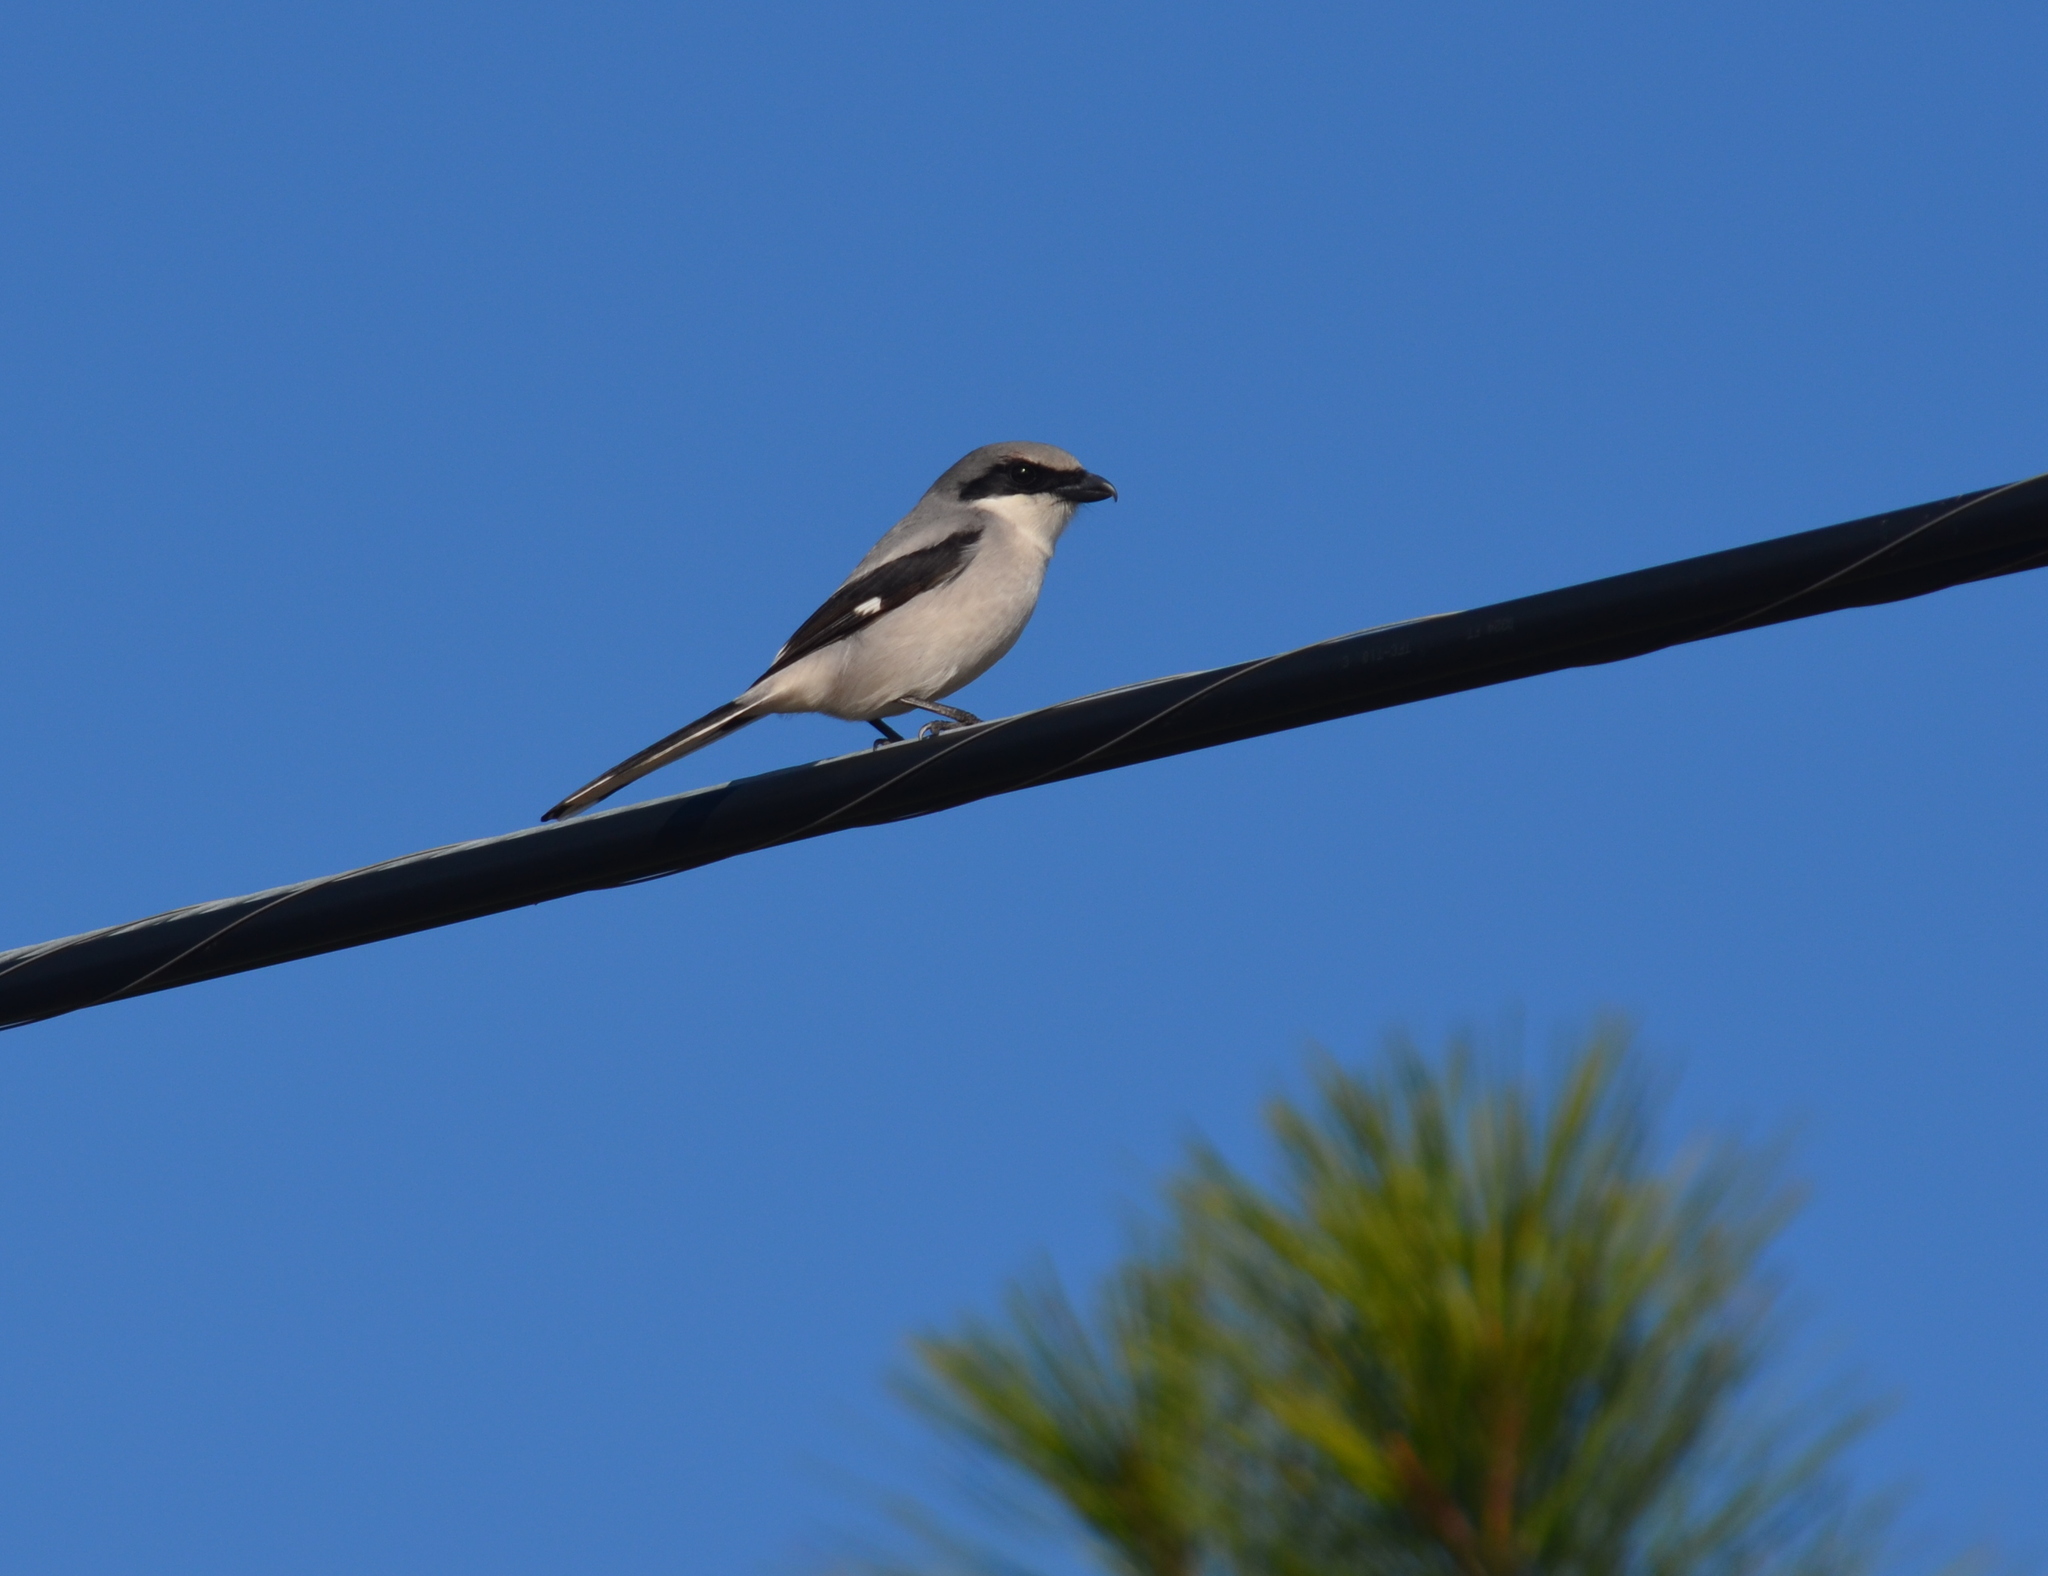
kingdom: Animalia
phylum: Chordata
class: Aves
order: Passeriformes
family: Laniidae
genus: Lanius
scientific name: Lanius ludovicianus
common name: Loggerhead shrike
